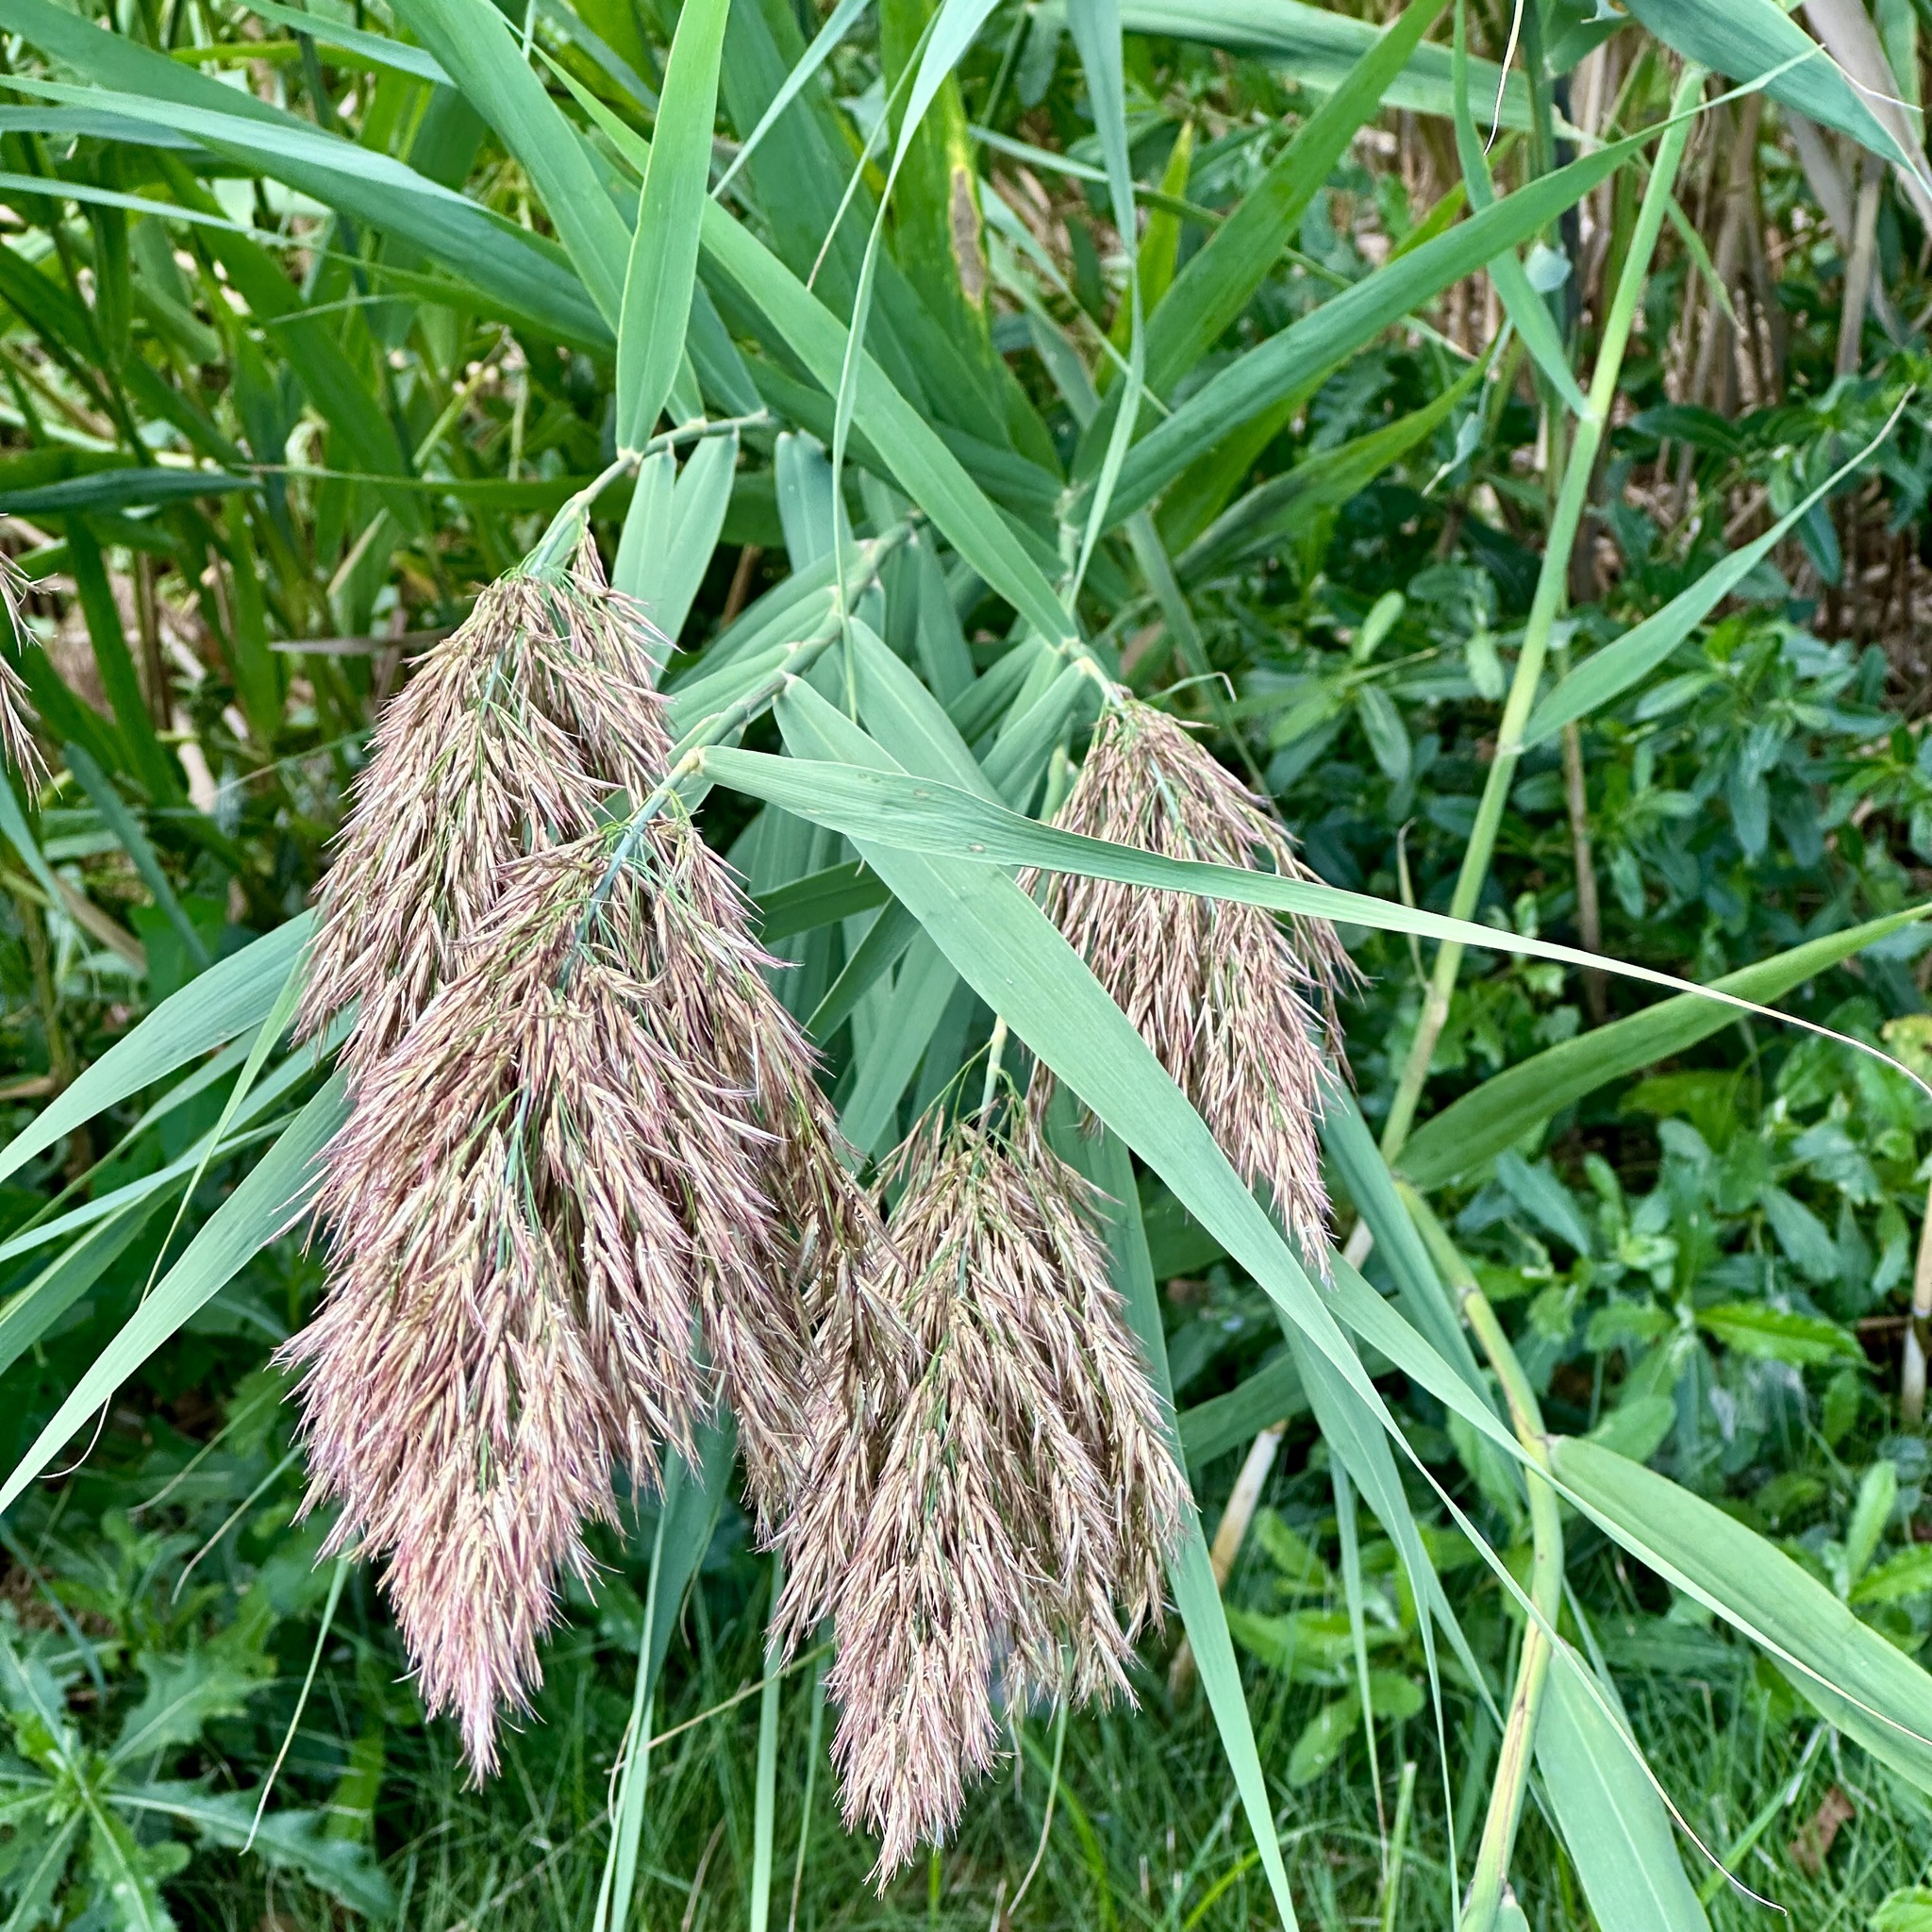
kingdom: Plantae
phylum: Tracheophyta
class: Liliopsida
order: Poales
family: Poaceae
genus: Phragmites
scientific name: Phragmites australis
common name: Common reed
